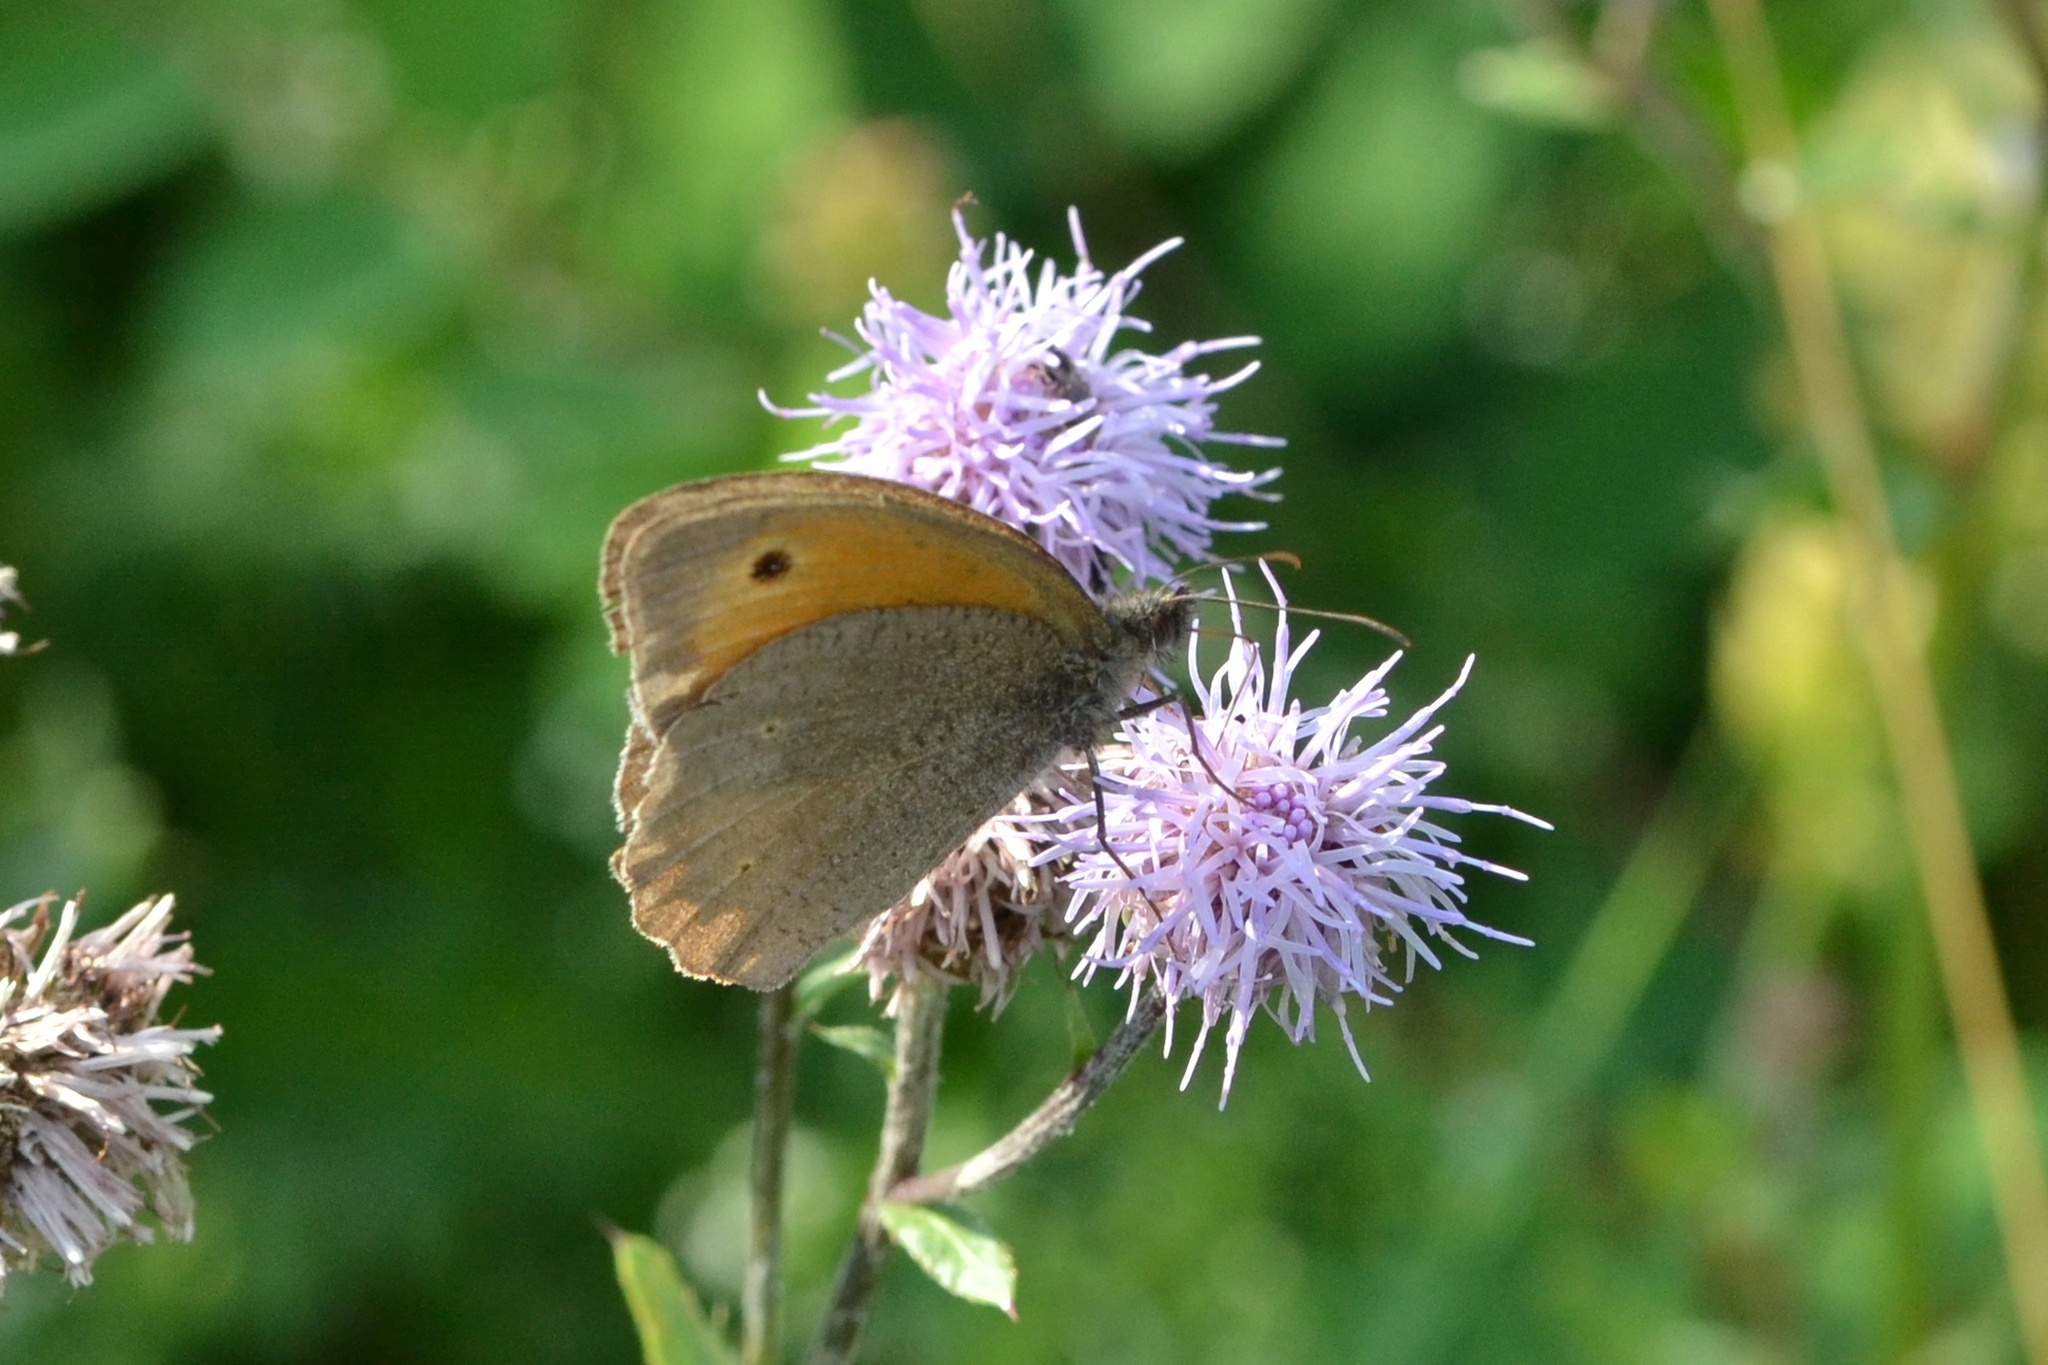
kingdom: Animalia
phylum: Arthropoda
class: Insecta
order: Lepidoptera
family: Nymphalidae
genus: Maniola
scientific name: Maniola jurtina
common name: Meadow brown
